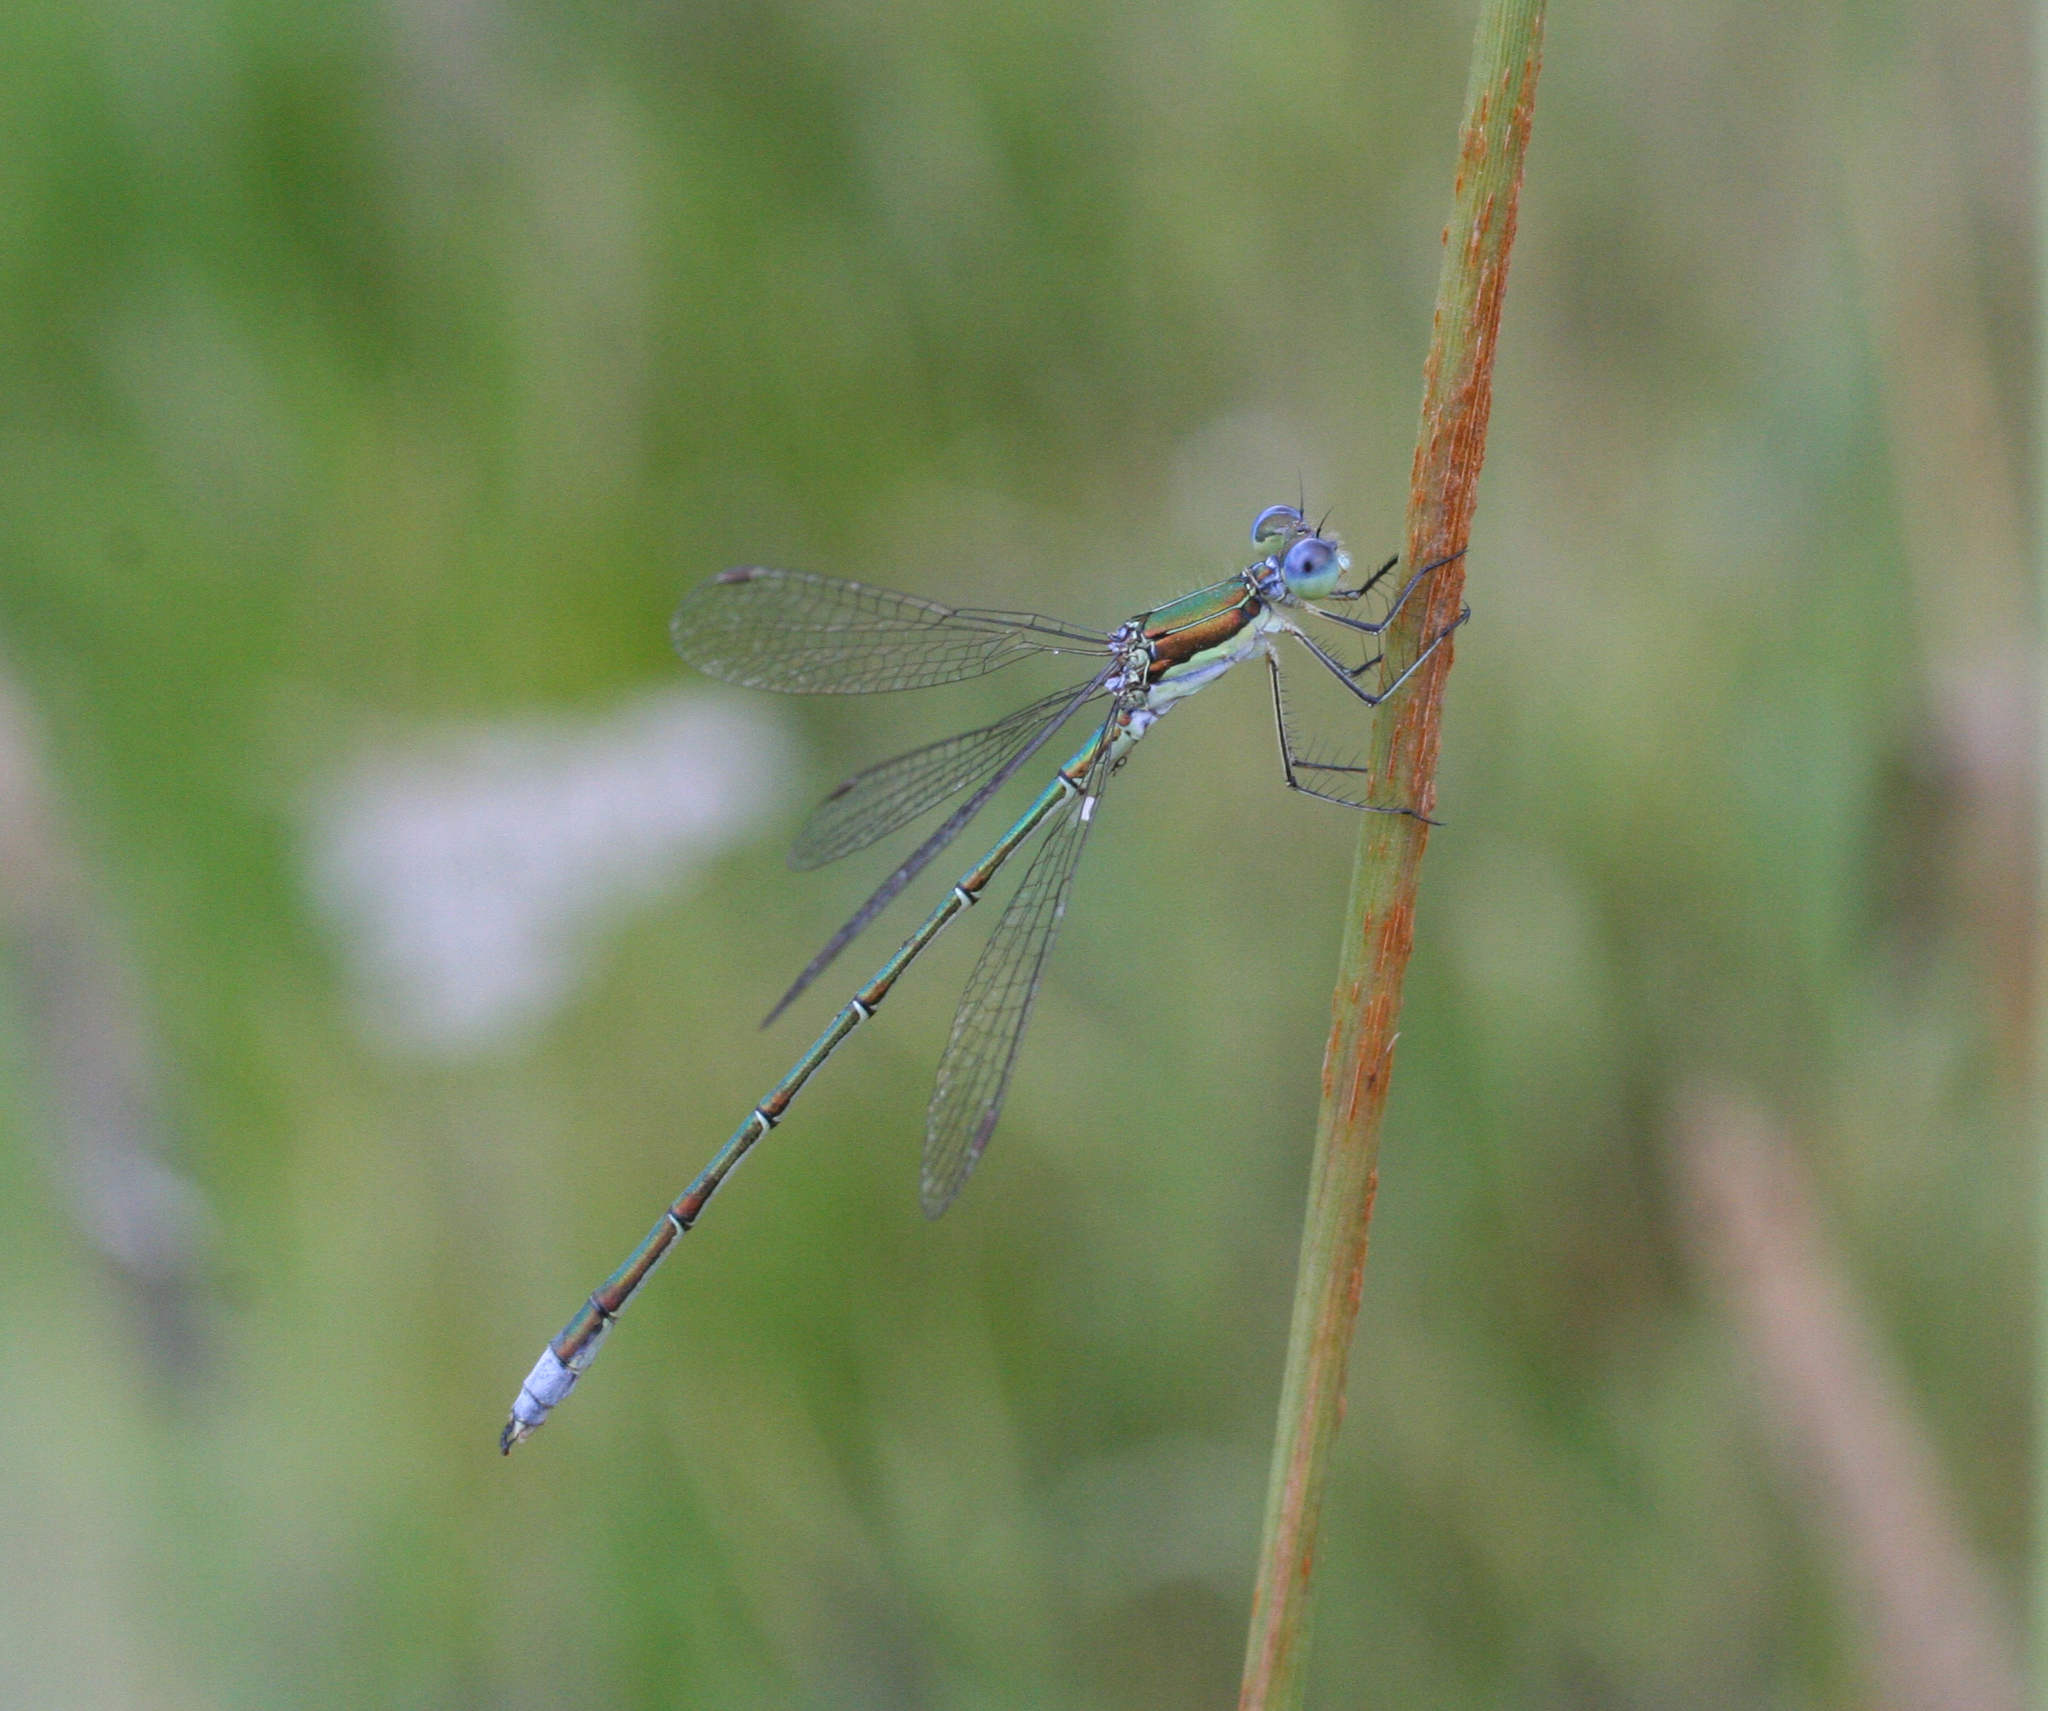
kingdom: Animalia
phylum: Arthropoda
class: Insecta
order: Odonata
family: Lestidae
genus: Lestes
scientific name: Lestes virens
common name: Small emerald spreadwing
